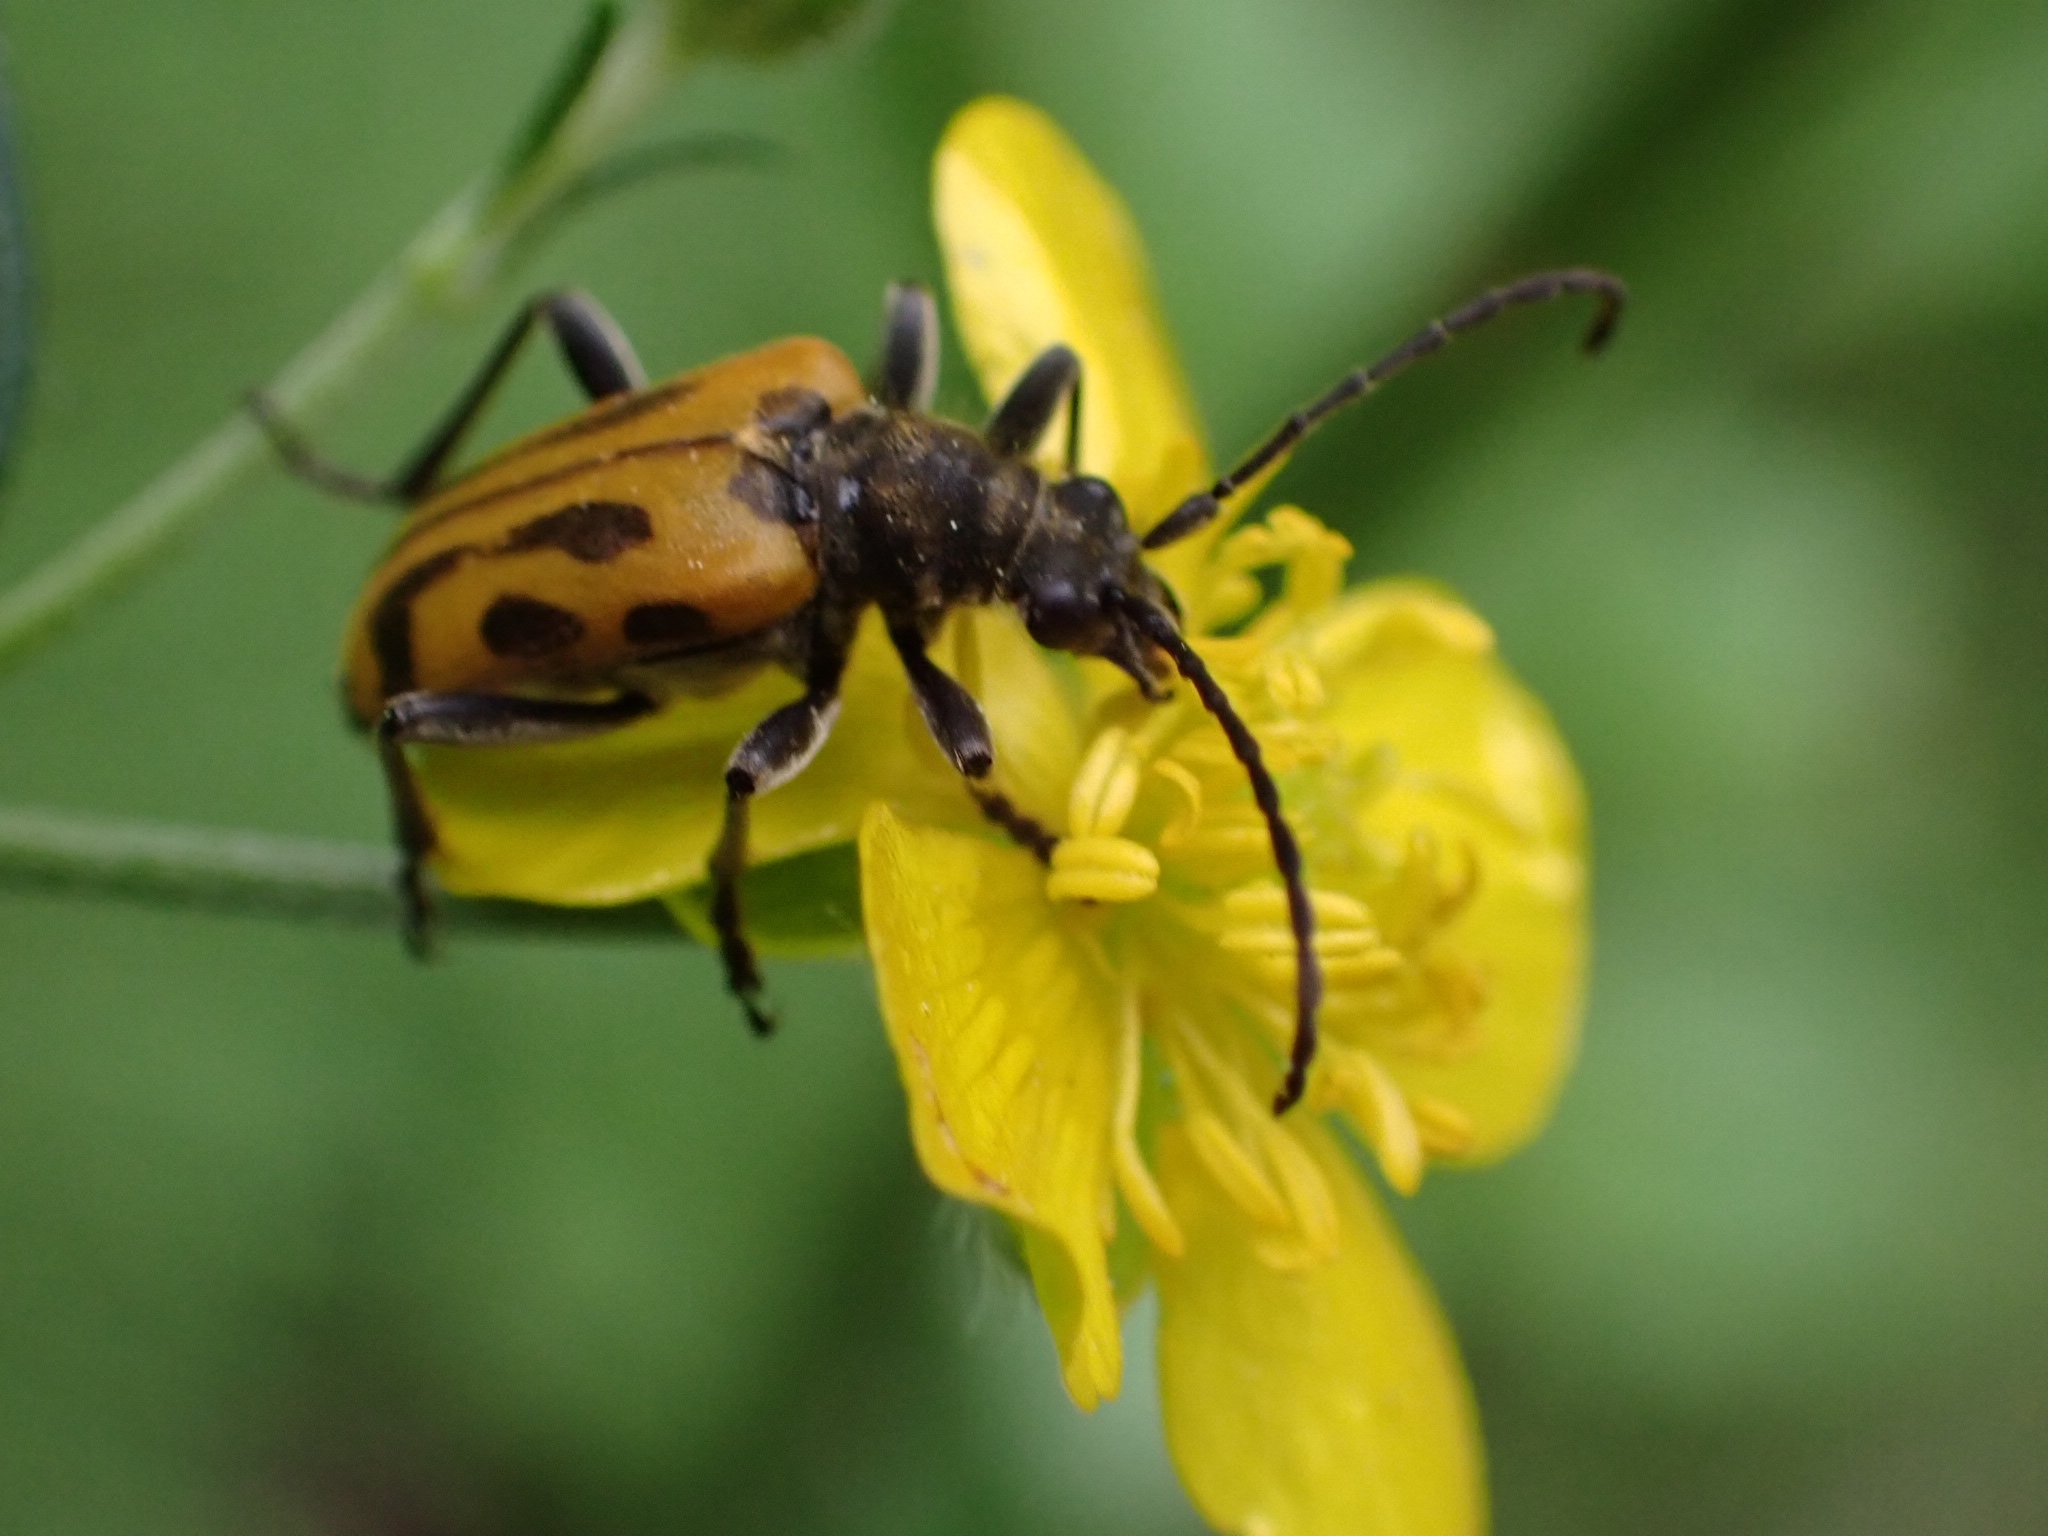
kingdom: Animalia
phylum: Arthropoda
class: Insecta
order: Coleoptera
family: Cerambycidae
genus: Brachyta
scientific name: Brachyta interrogationis
